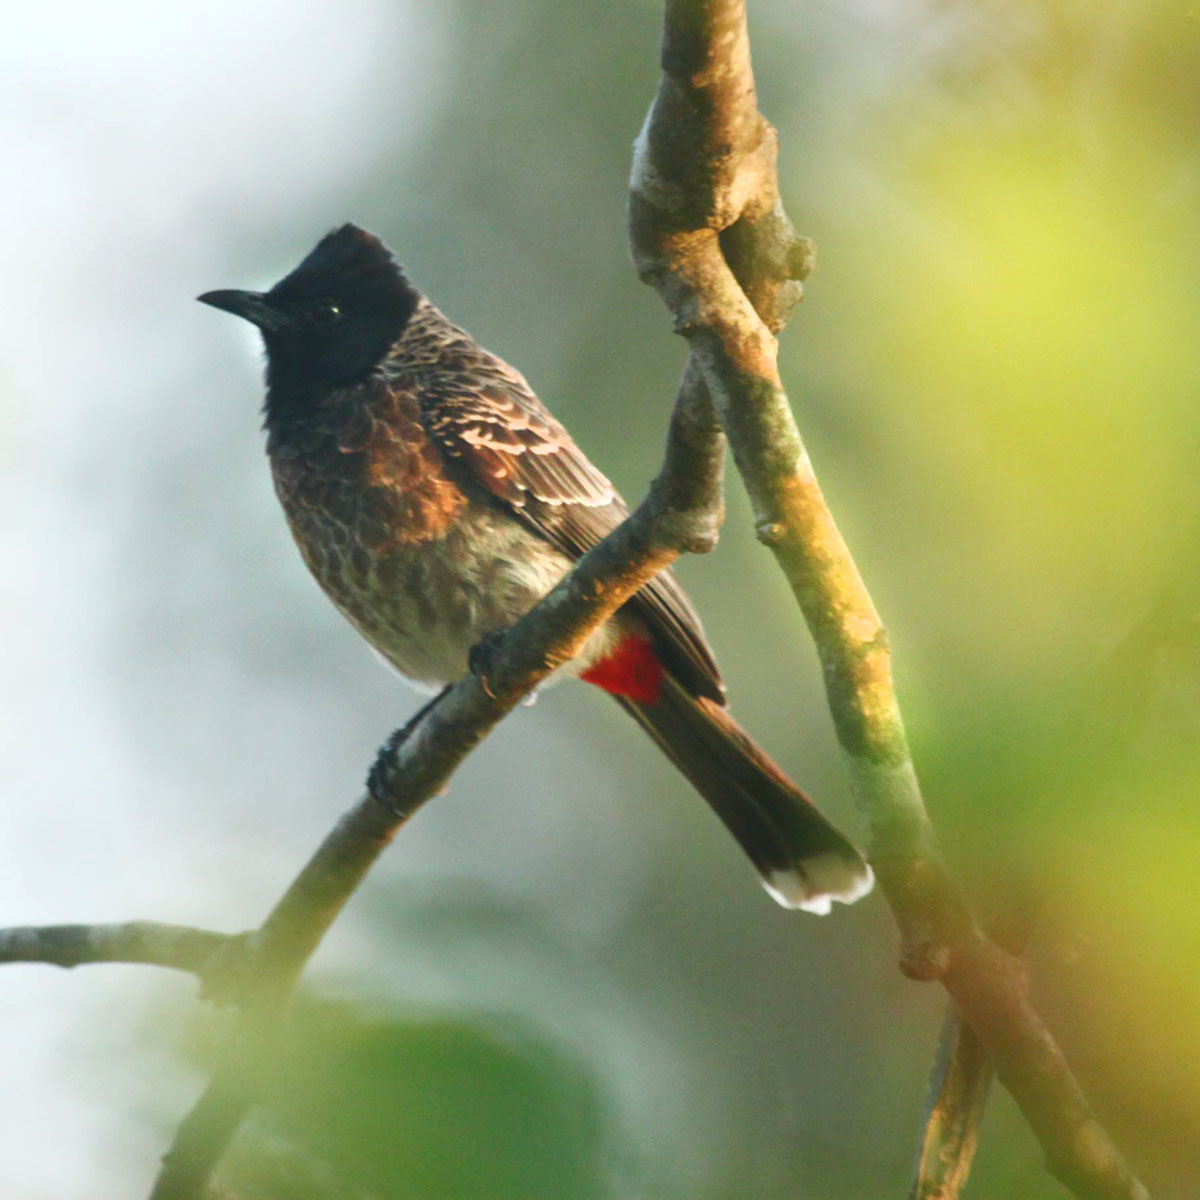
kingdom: Animalia
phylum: Chordata
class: Aves
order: Passeriformes
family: Pycnonotidae
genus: Pycnonotus
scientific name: Pycnonotus cafer
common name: Red-vented bulbul
